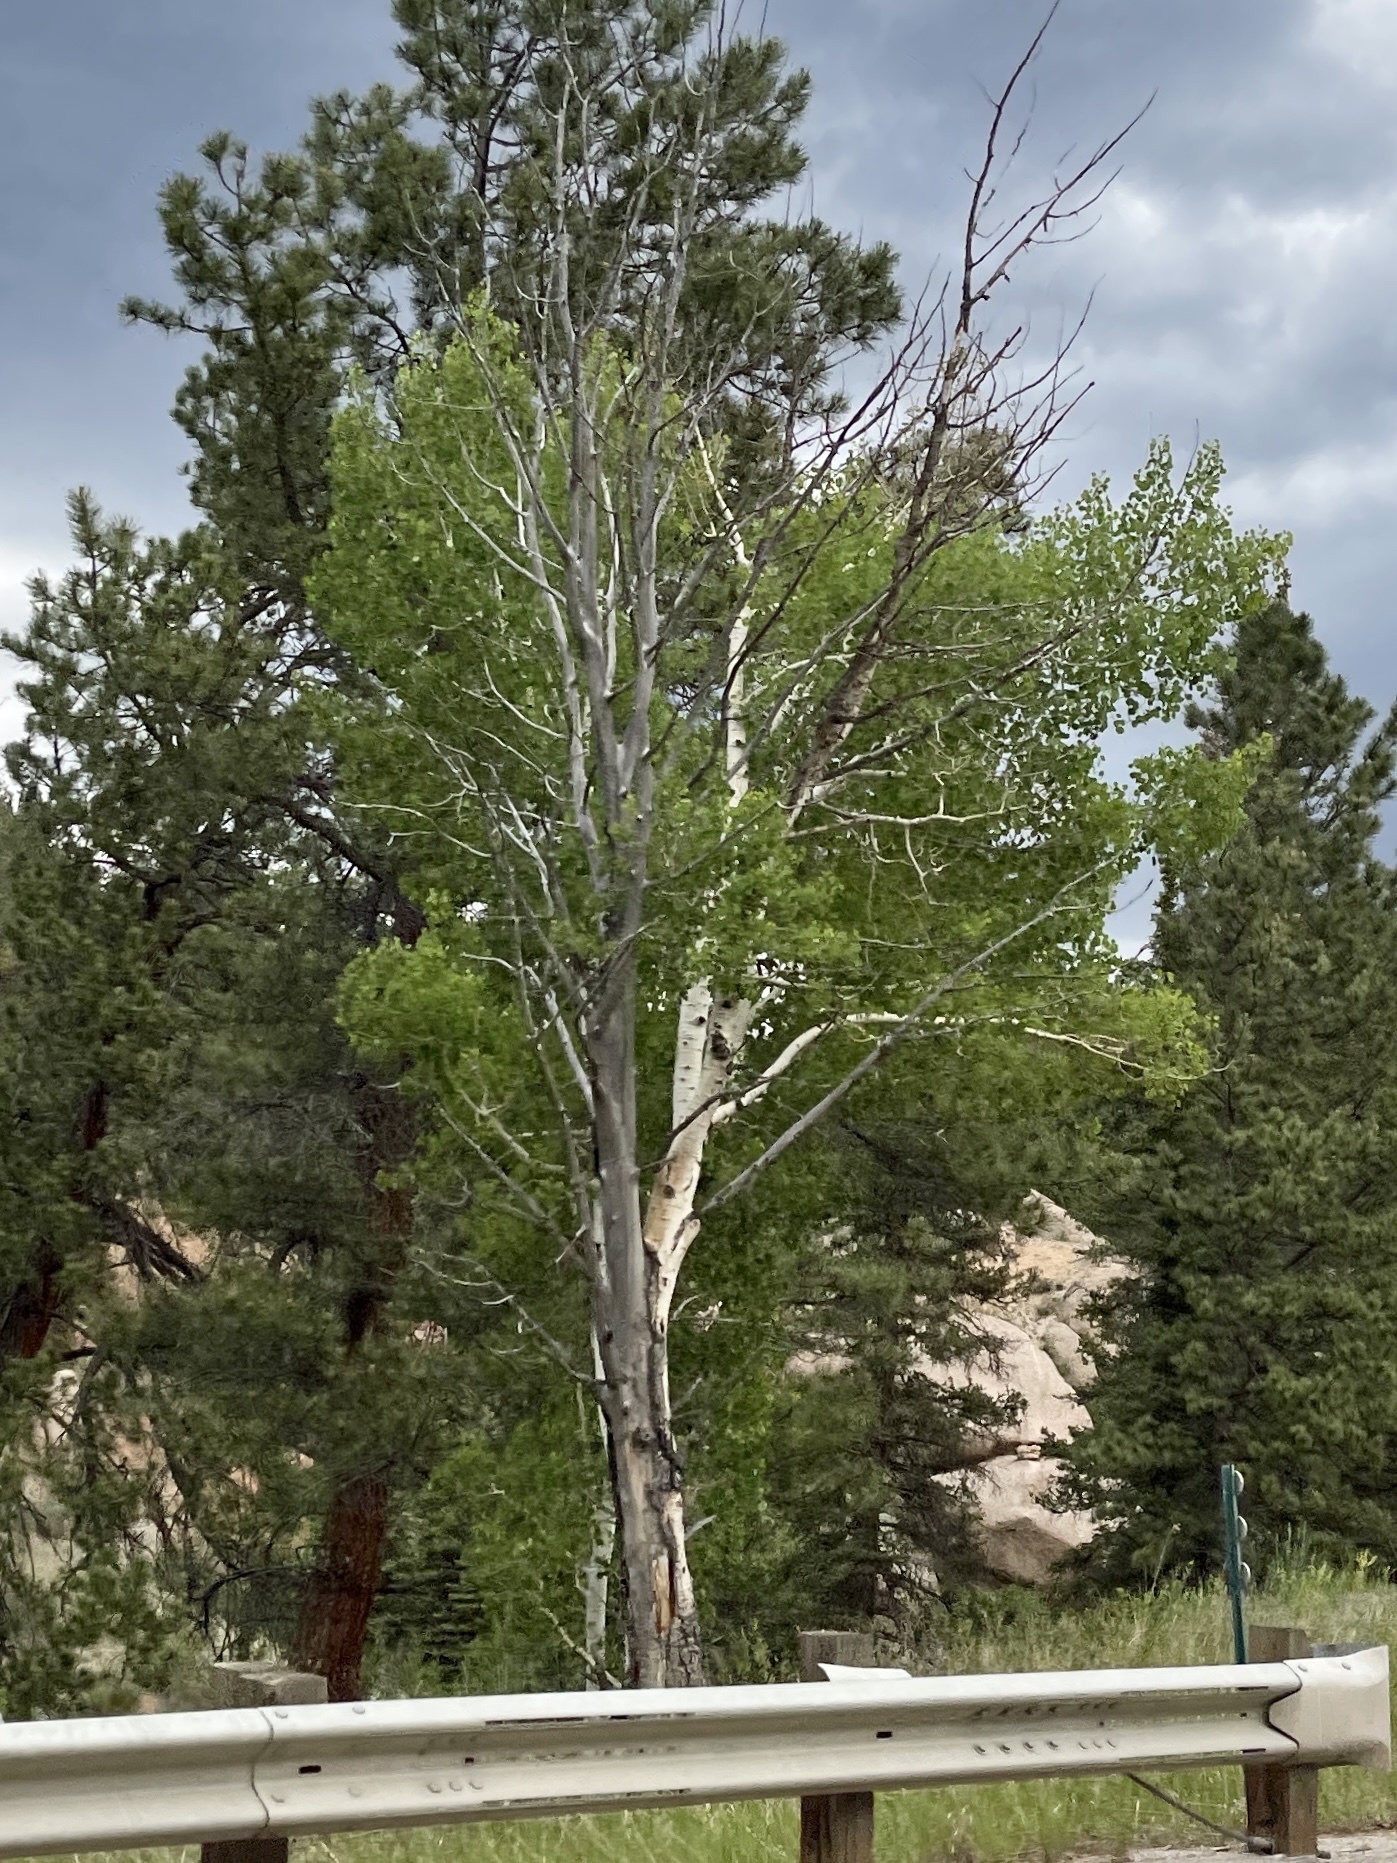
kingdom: Plantae
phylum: Tracheophyta
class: Magnoliopsida
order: Malpighiales
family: Salicaceae
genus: Populus
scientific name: Populus tremuloides
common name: Quaking aspen
